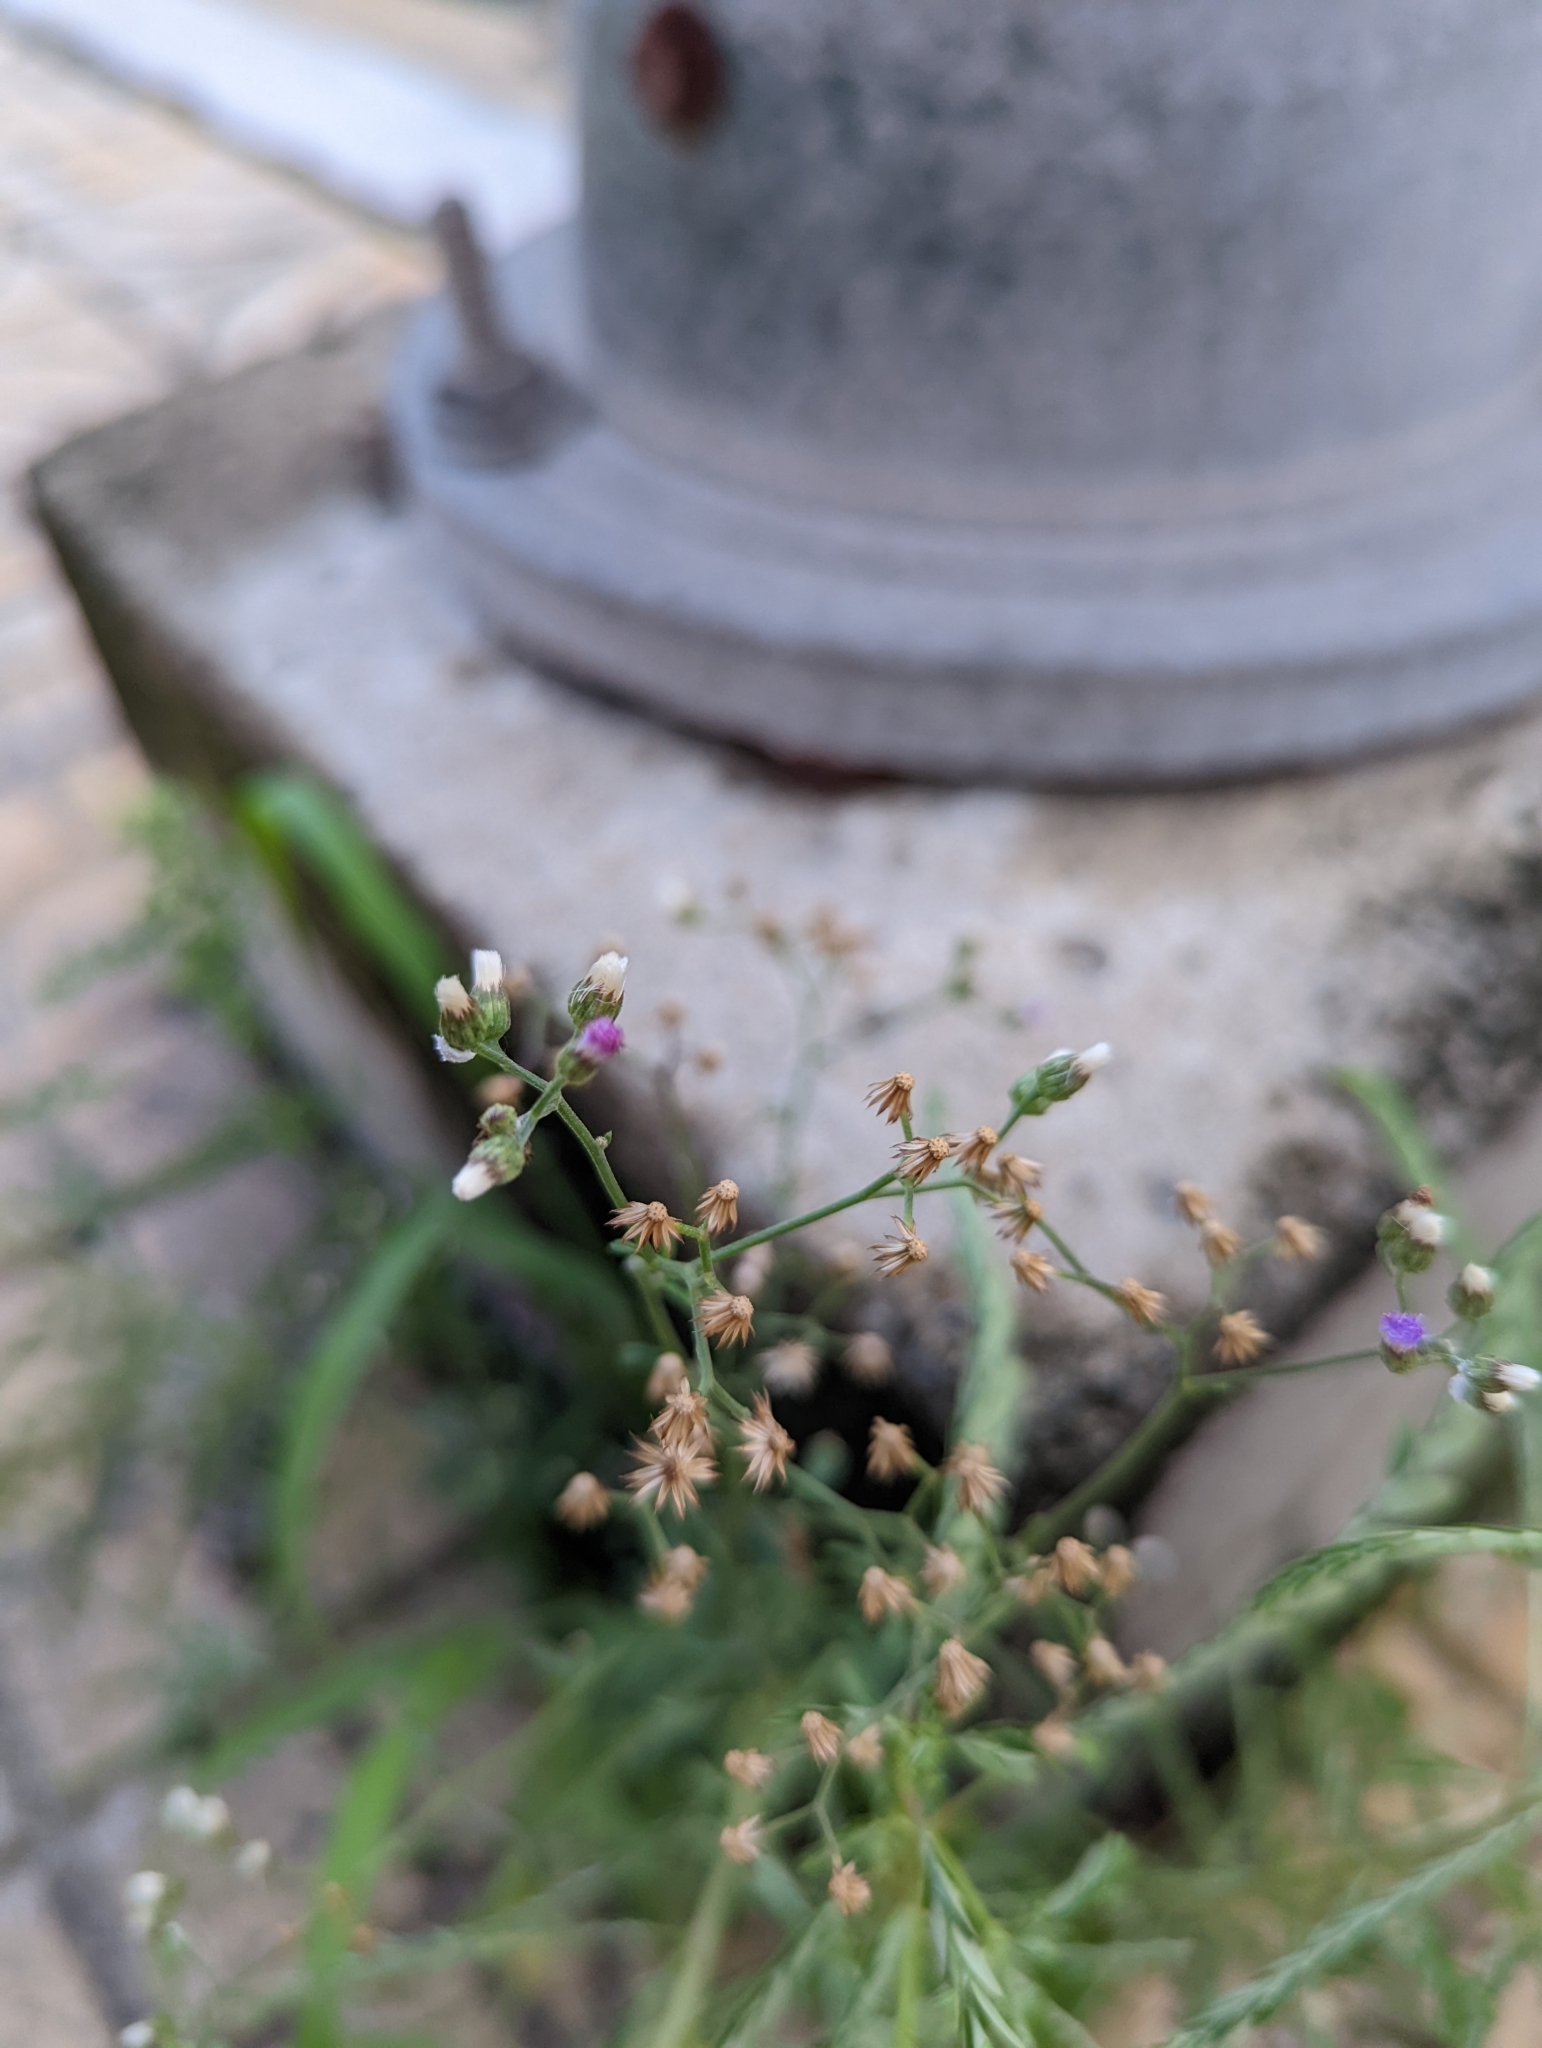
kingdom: Plantae
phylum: Tracheophyta
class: Magnoliopsida
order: Asterales
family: Asteraceae
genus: Cyanthillium
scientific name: Cyanthillium cinereum
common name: Little ironweed
